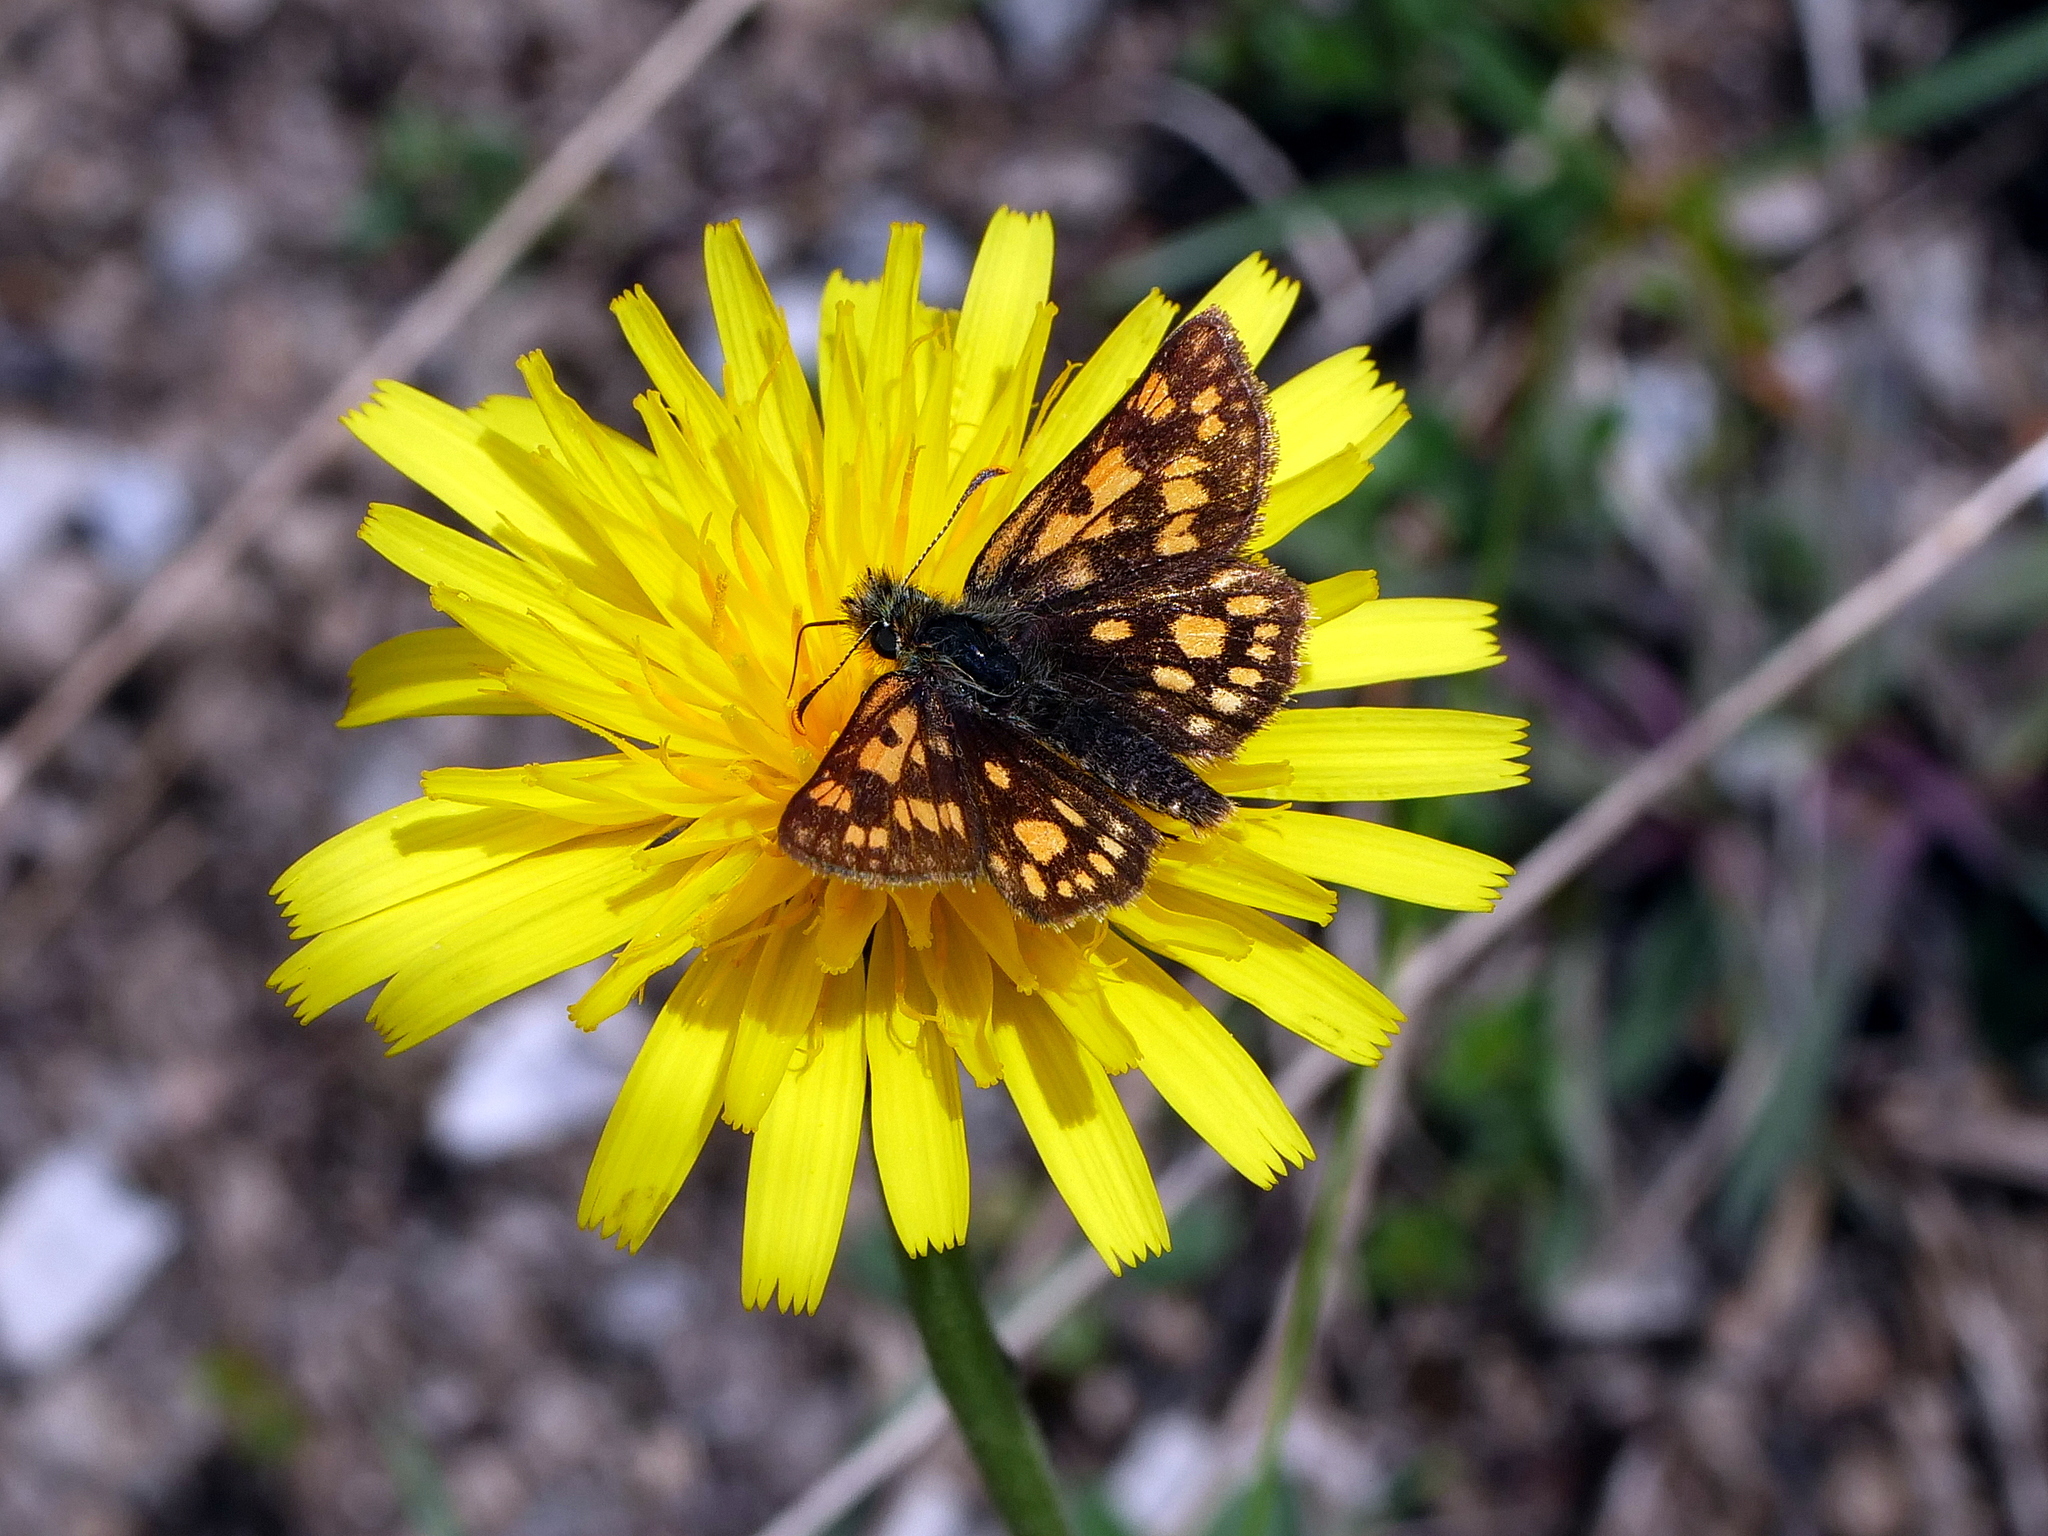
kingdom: Animalia
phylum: Arthropoda
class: Insecta
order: Lepidoptera
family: Hesperiidae
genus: Carterocephalus
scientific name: Carterocephalus palaemon
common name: Chequered skipper
